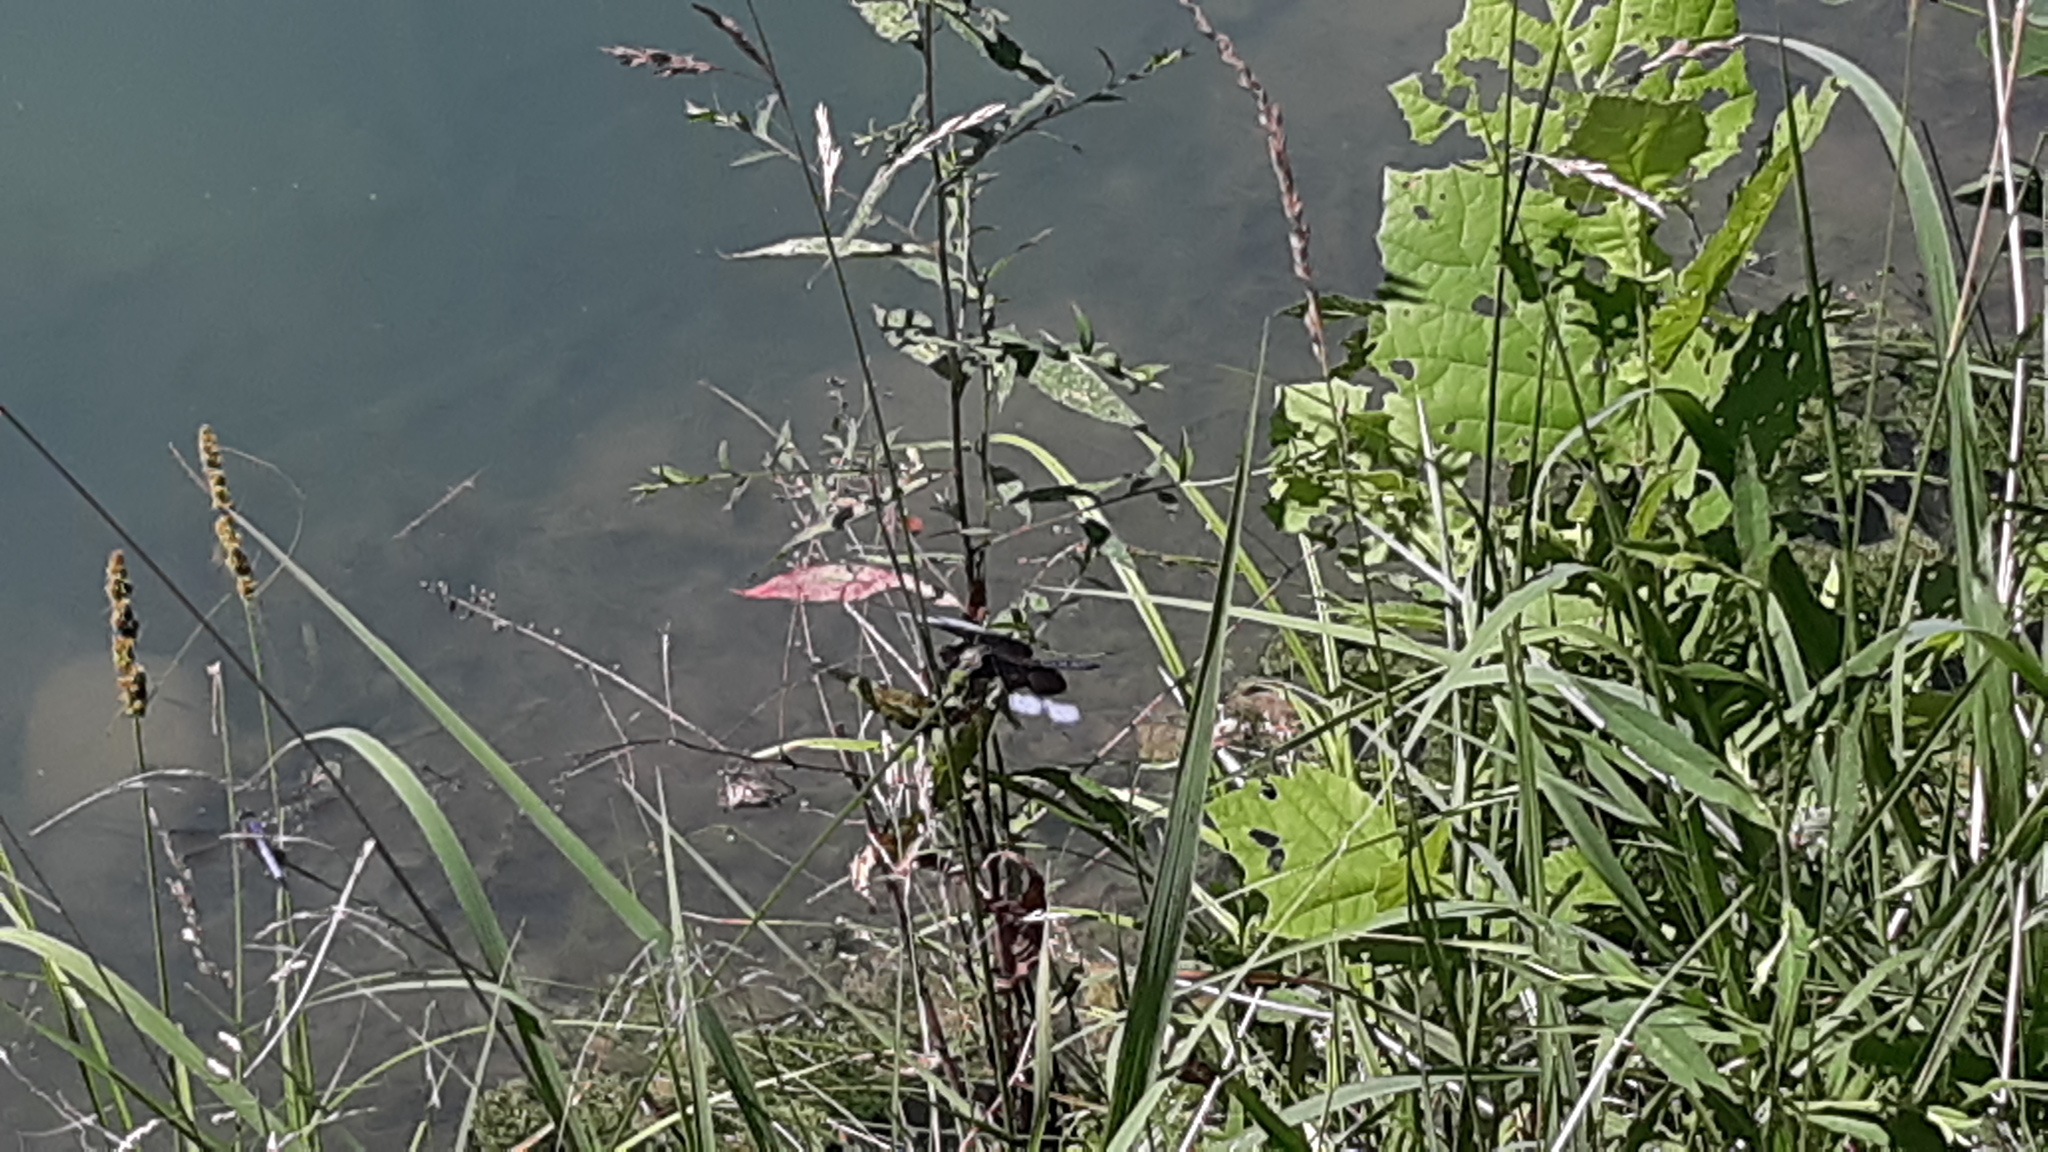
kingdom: Animalia
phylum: Arthropoda
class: Insecta
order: Odonata
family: Libellulidae
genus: Libellula
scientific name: Libellula luctuosa
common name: Widow skimmer
